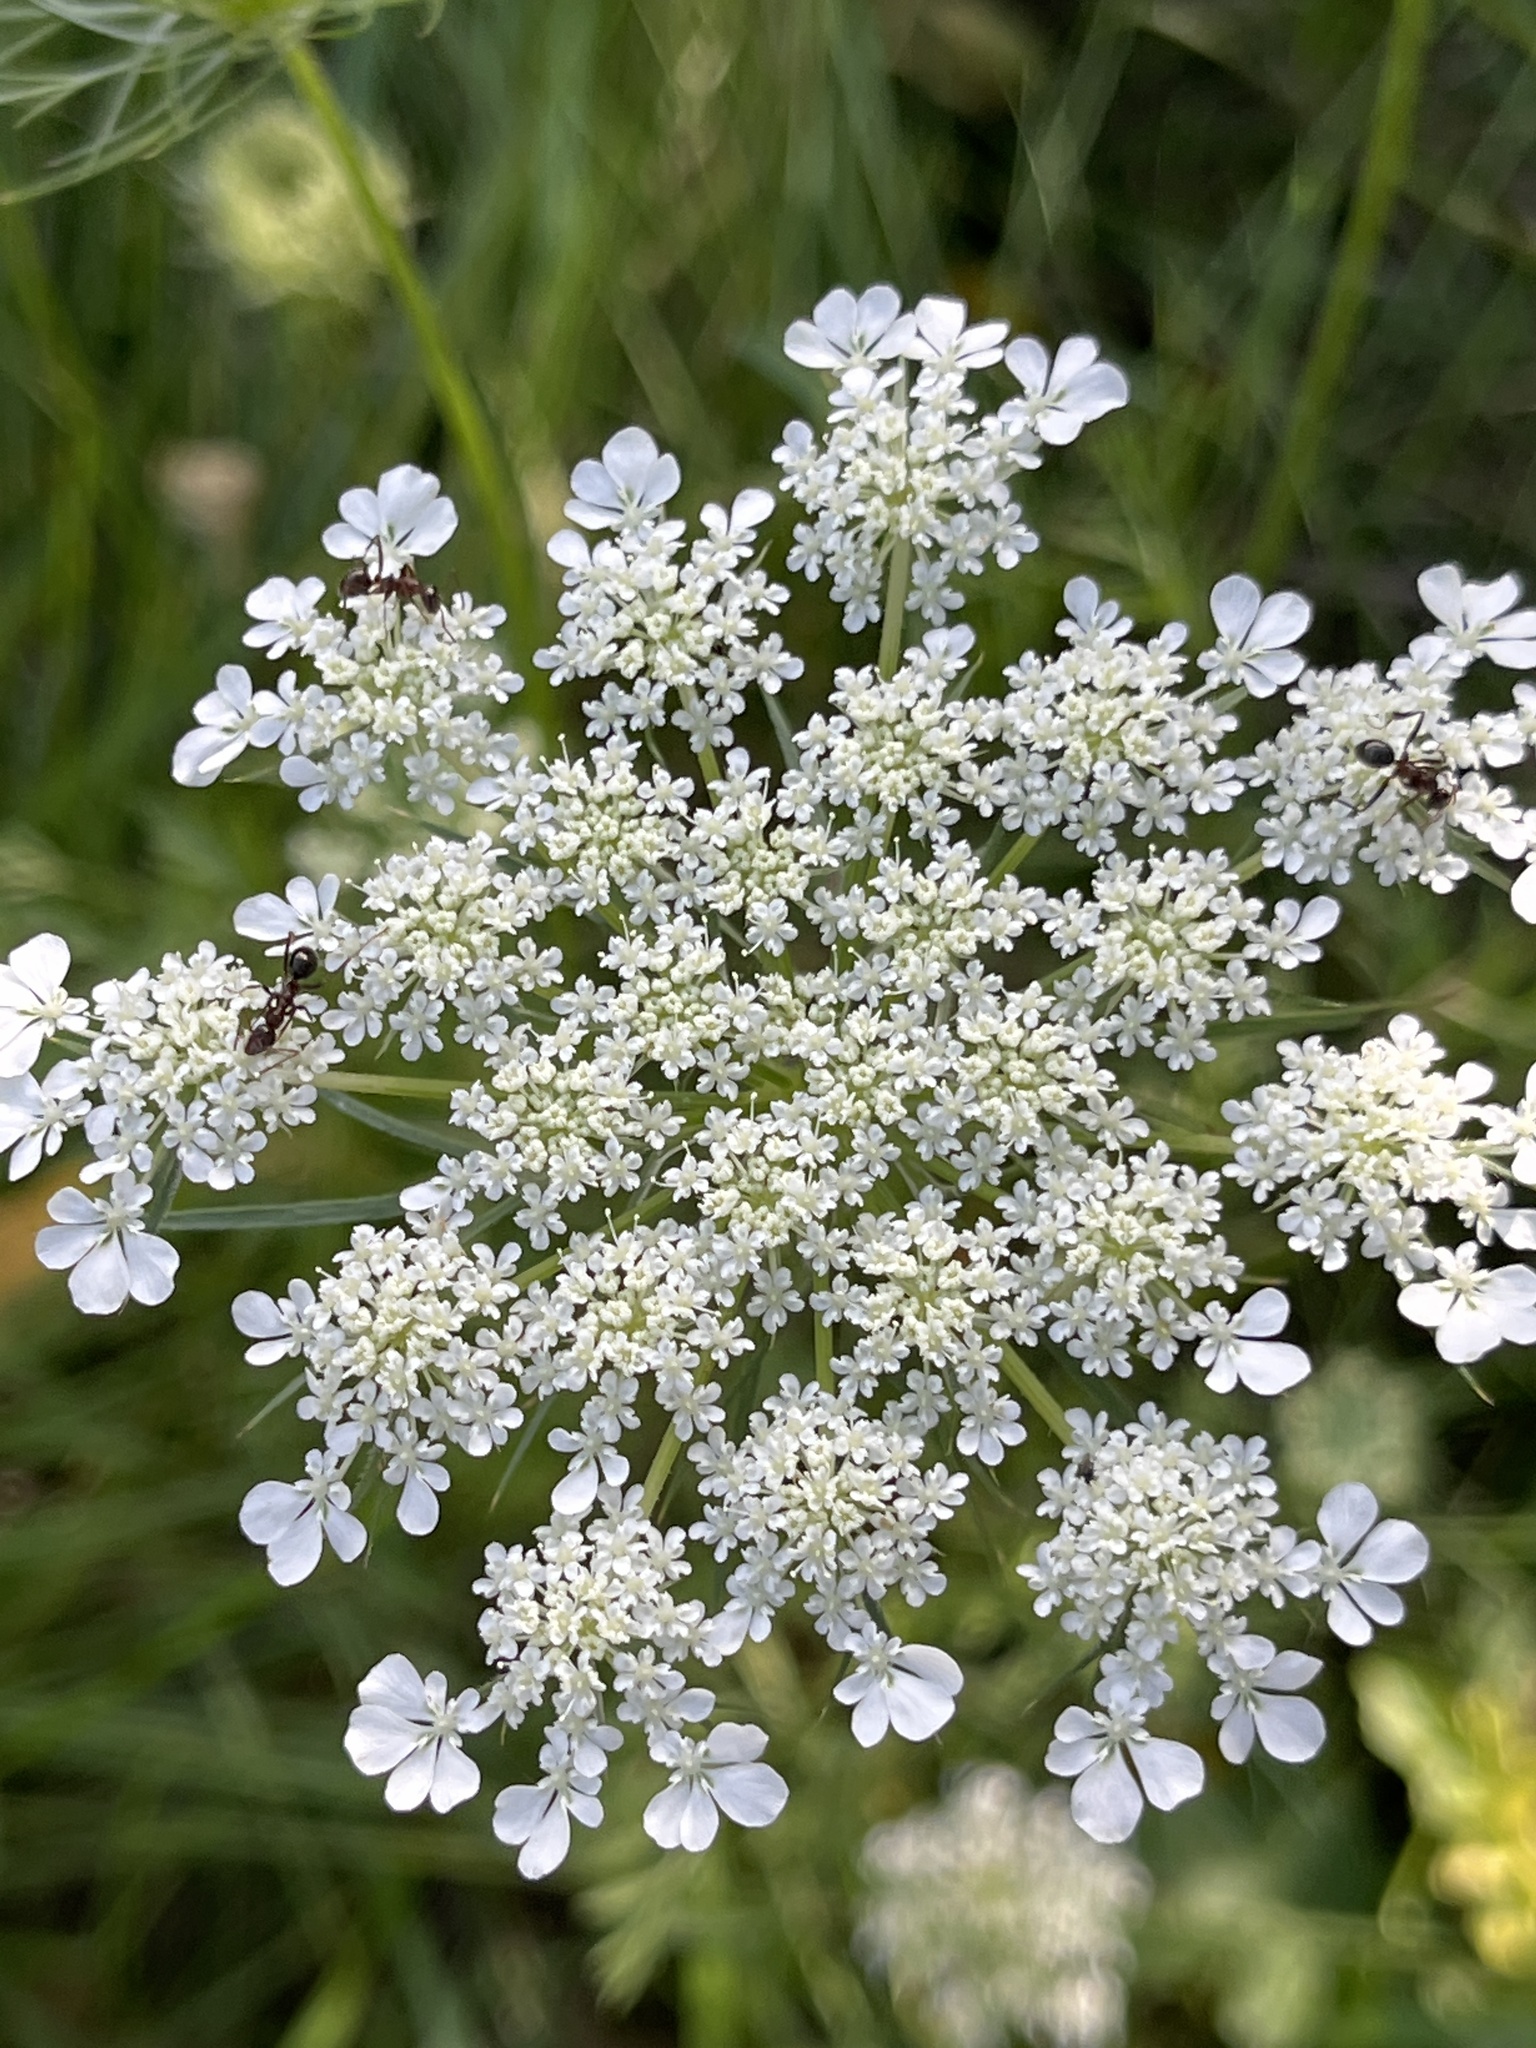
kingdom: Plantae
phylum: Tracheophyta
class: Magnoliopsida
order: Apiales
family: Apiaceae
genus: Daucus
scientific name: Daucus carota
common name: Wild carrot
